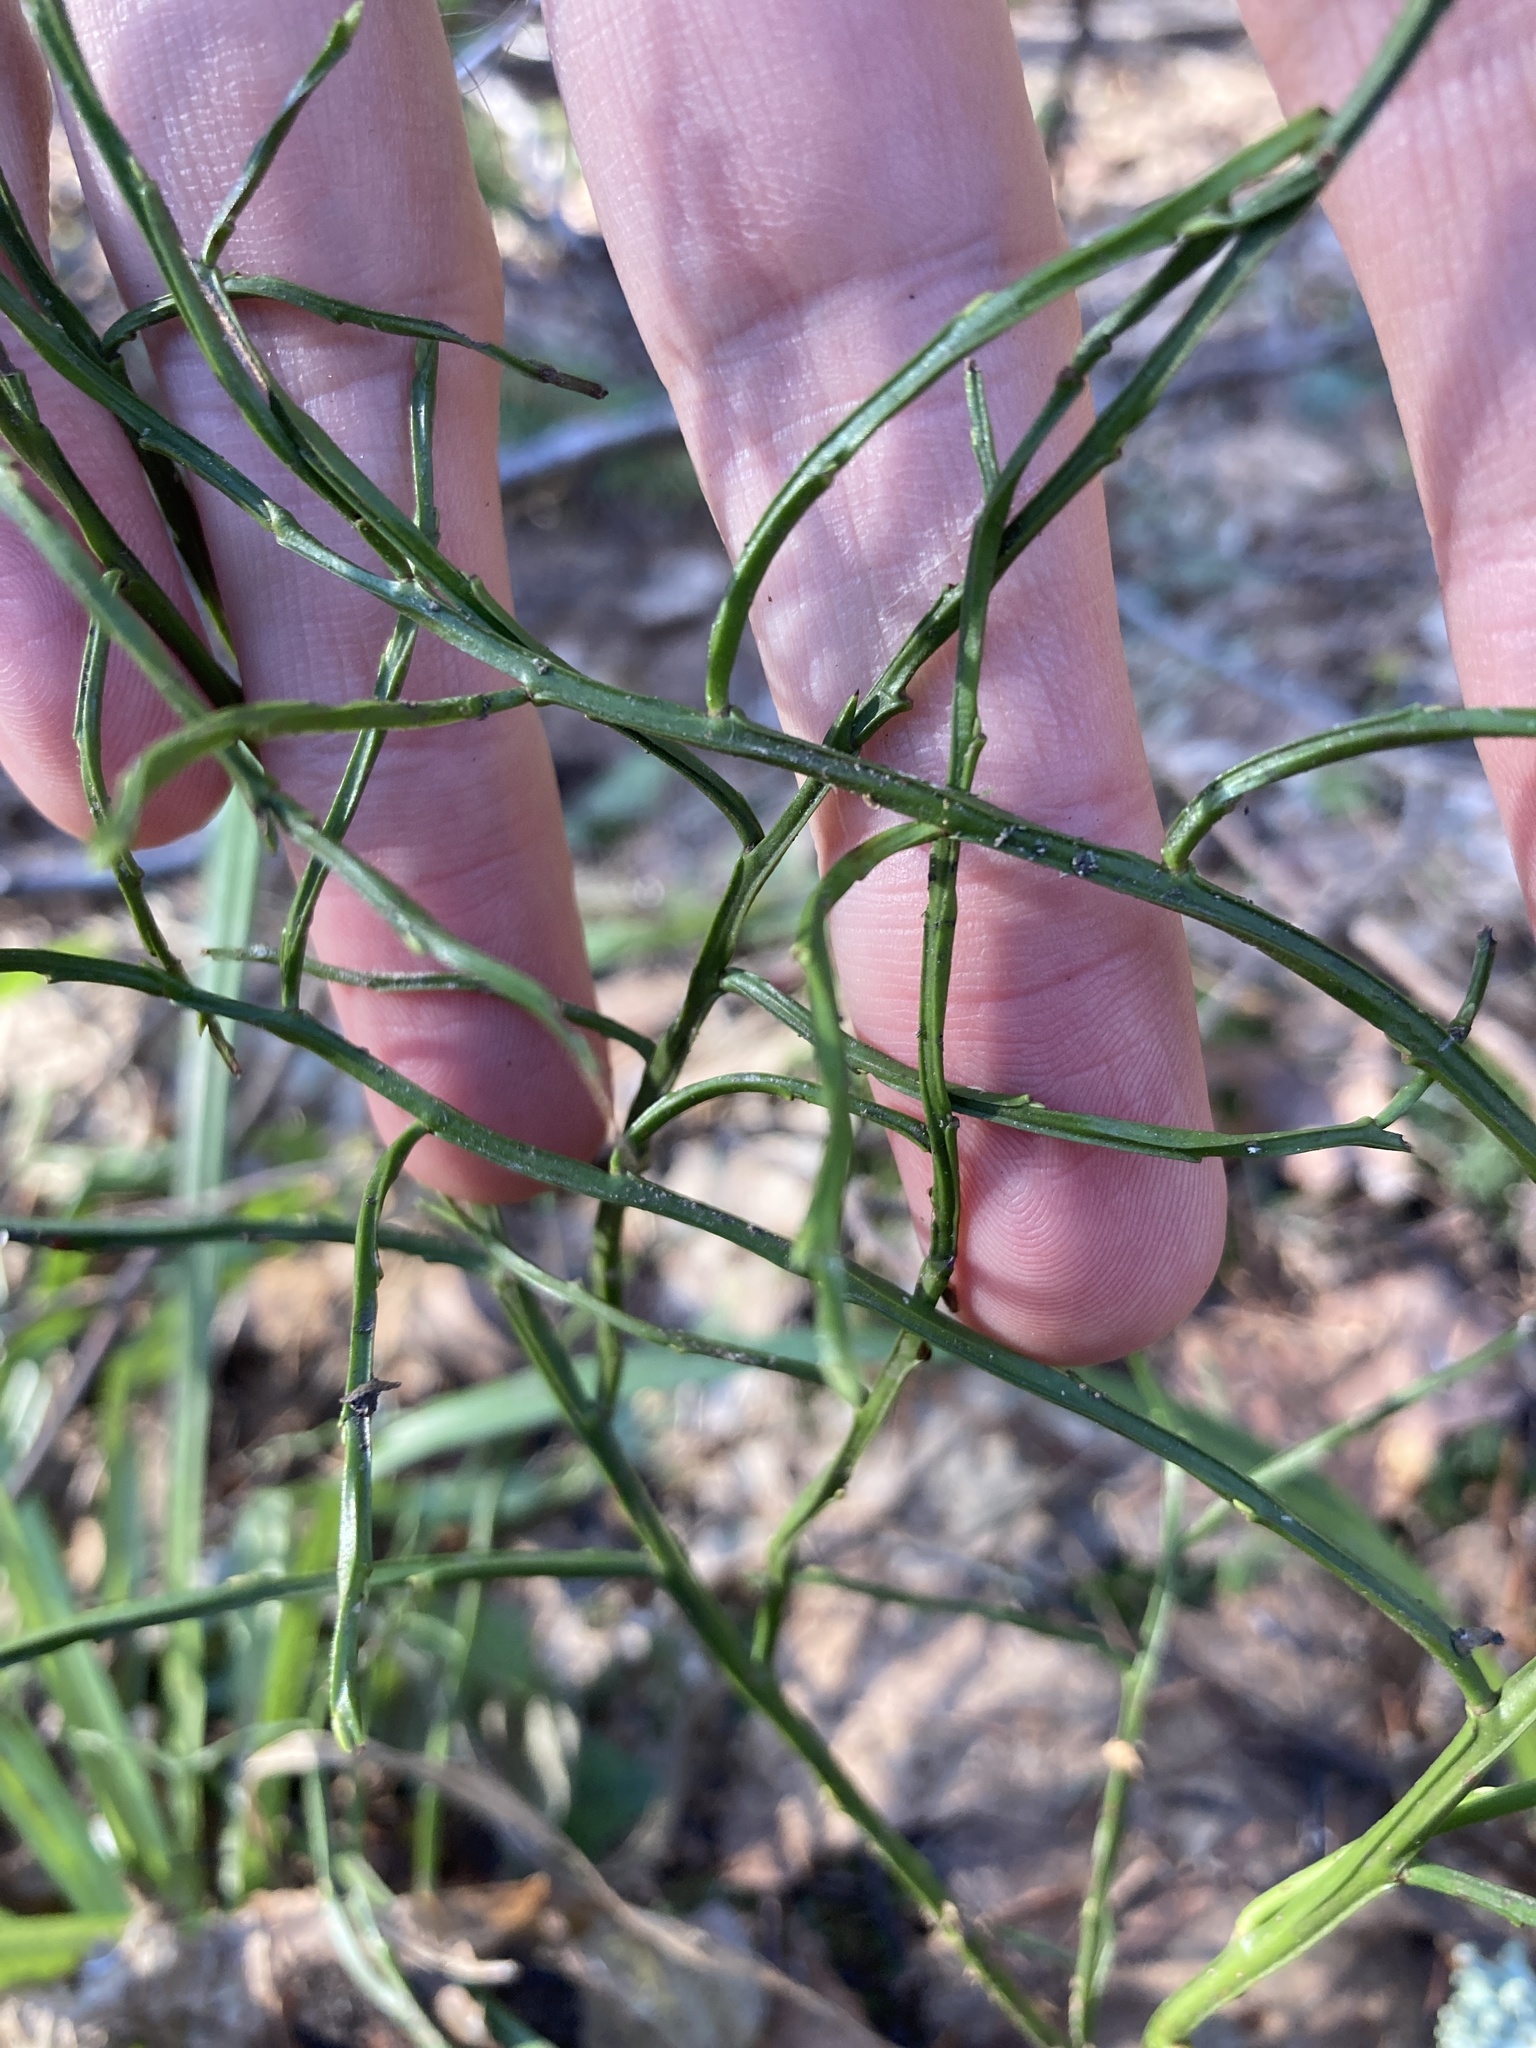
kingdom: Plantae
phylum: Tracheophyta
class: Magnoliopsida
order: Ericales
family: Ericaceae
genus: Vaccinium
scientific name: Vaccinium myrtillus
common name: Bilberry
